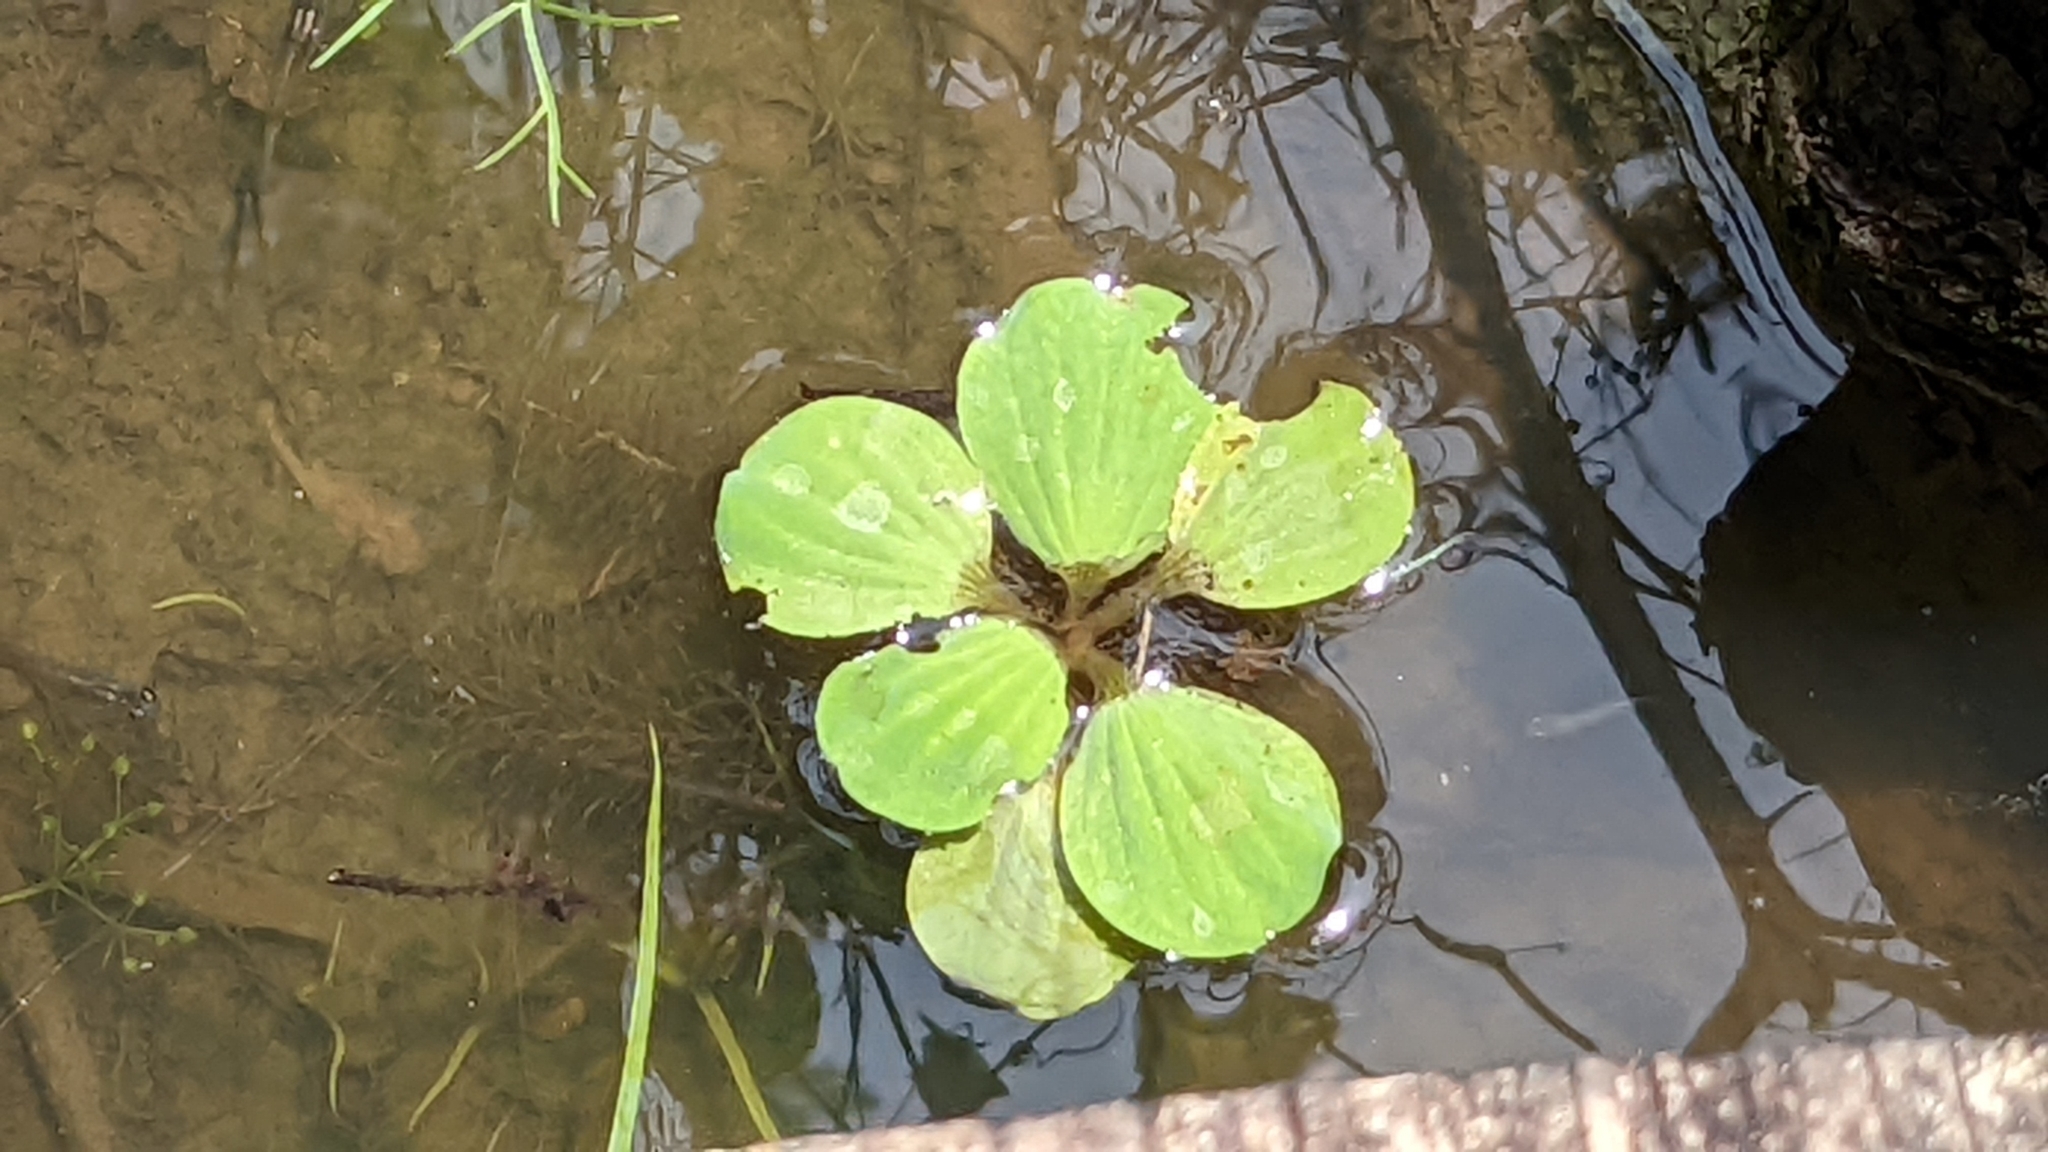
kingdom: Plantae
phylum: Tracheophyta
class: Liliopsida
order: Alismatales
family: Araceae
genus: Pistia
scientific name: Pistia stratiotes
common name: Water lettuce
